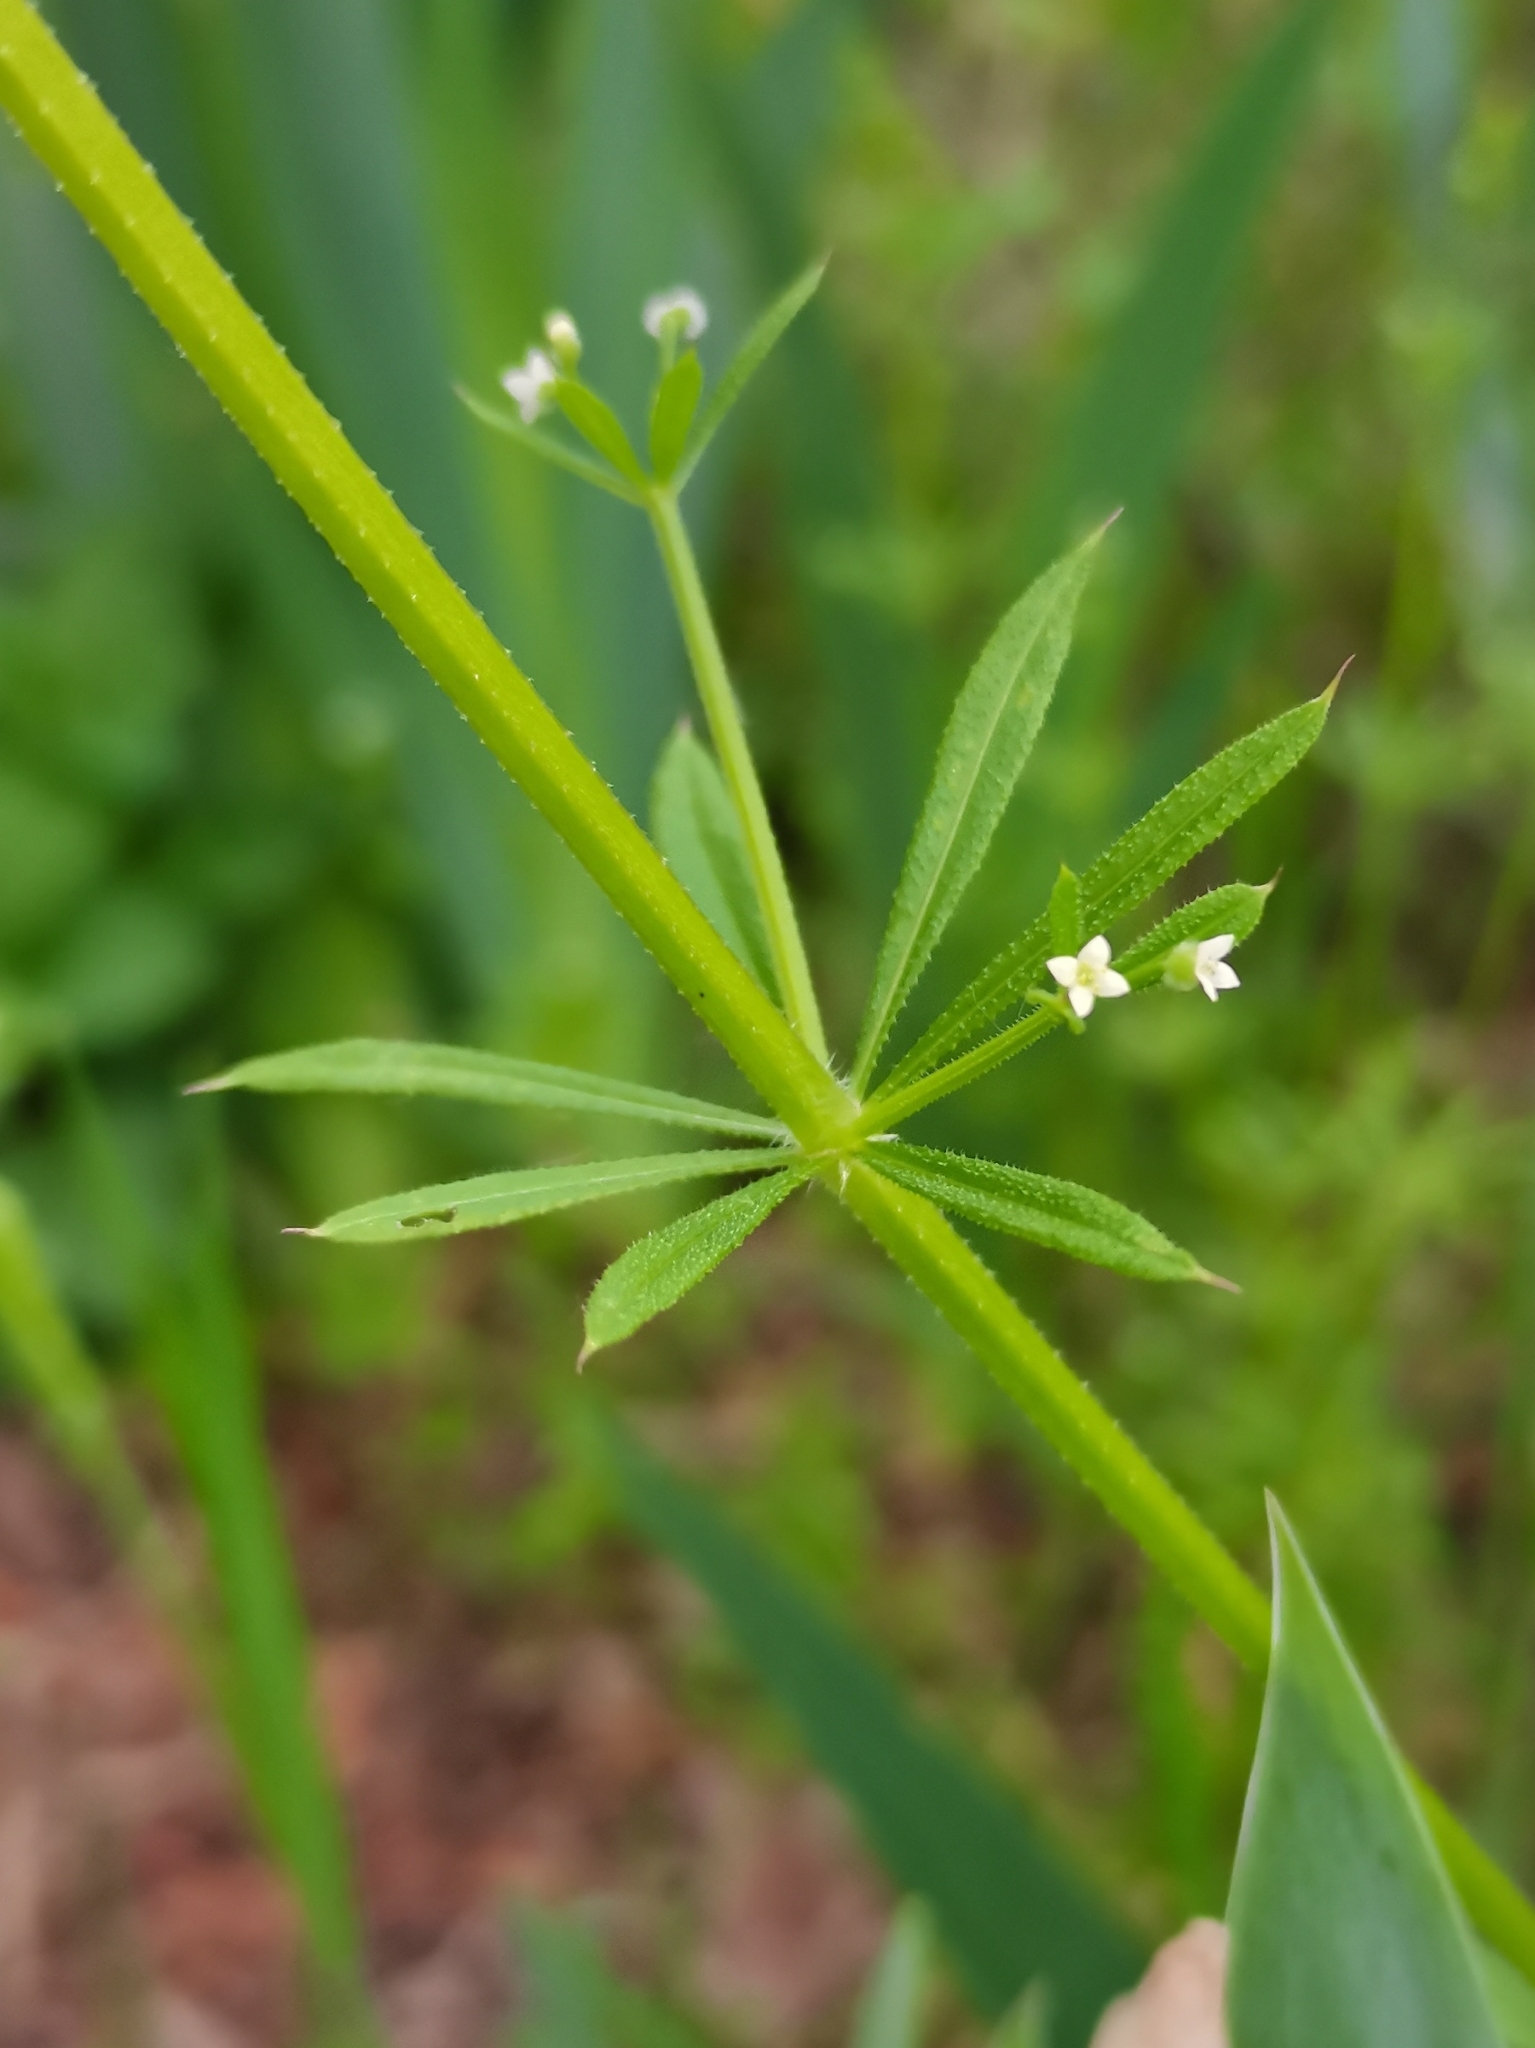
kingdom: Plantae
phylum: Tracheophyta
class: Magnoliopsida
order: Gentianales
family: Rubiaceae
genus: Galium
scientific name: Galium aparine
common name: Cleavers
